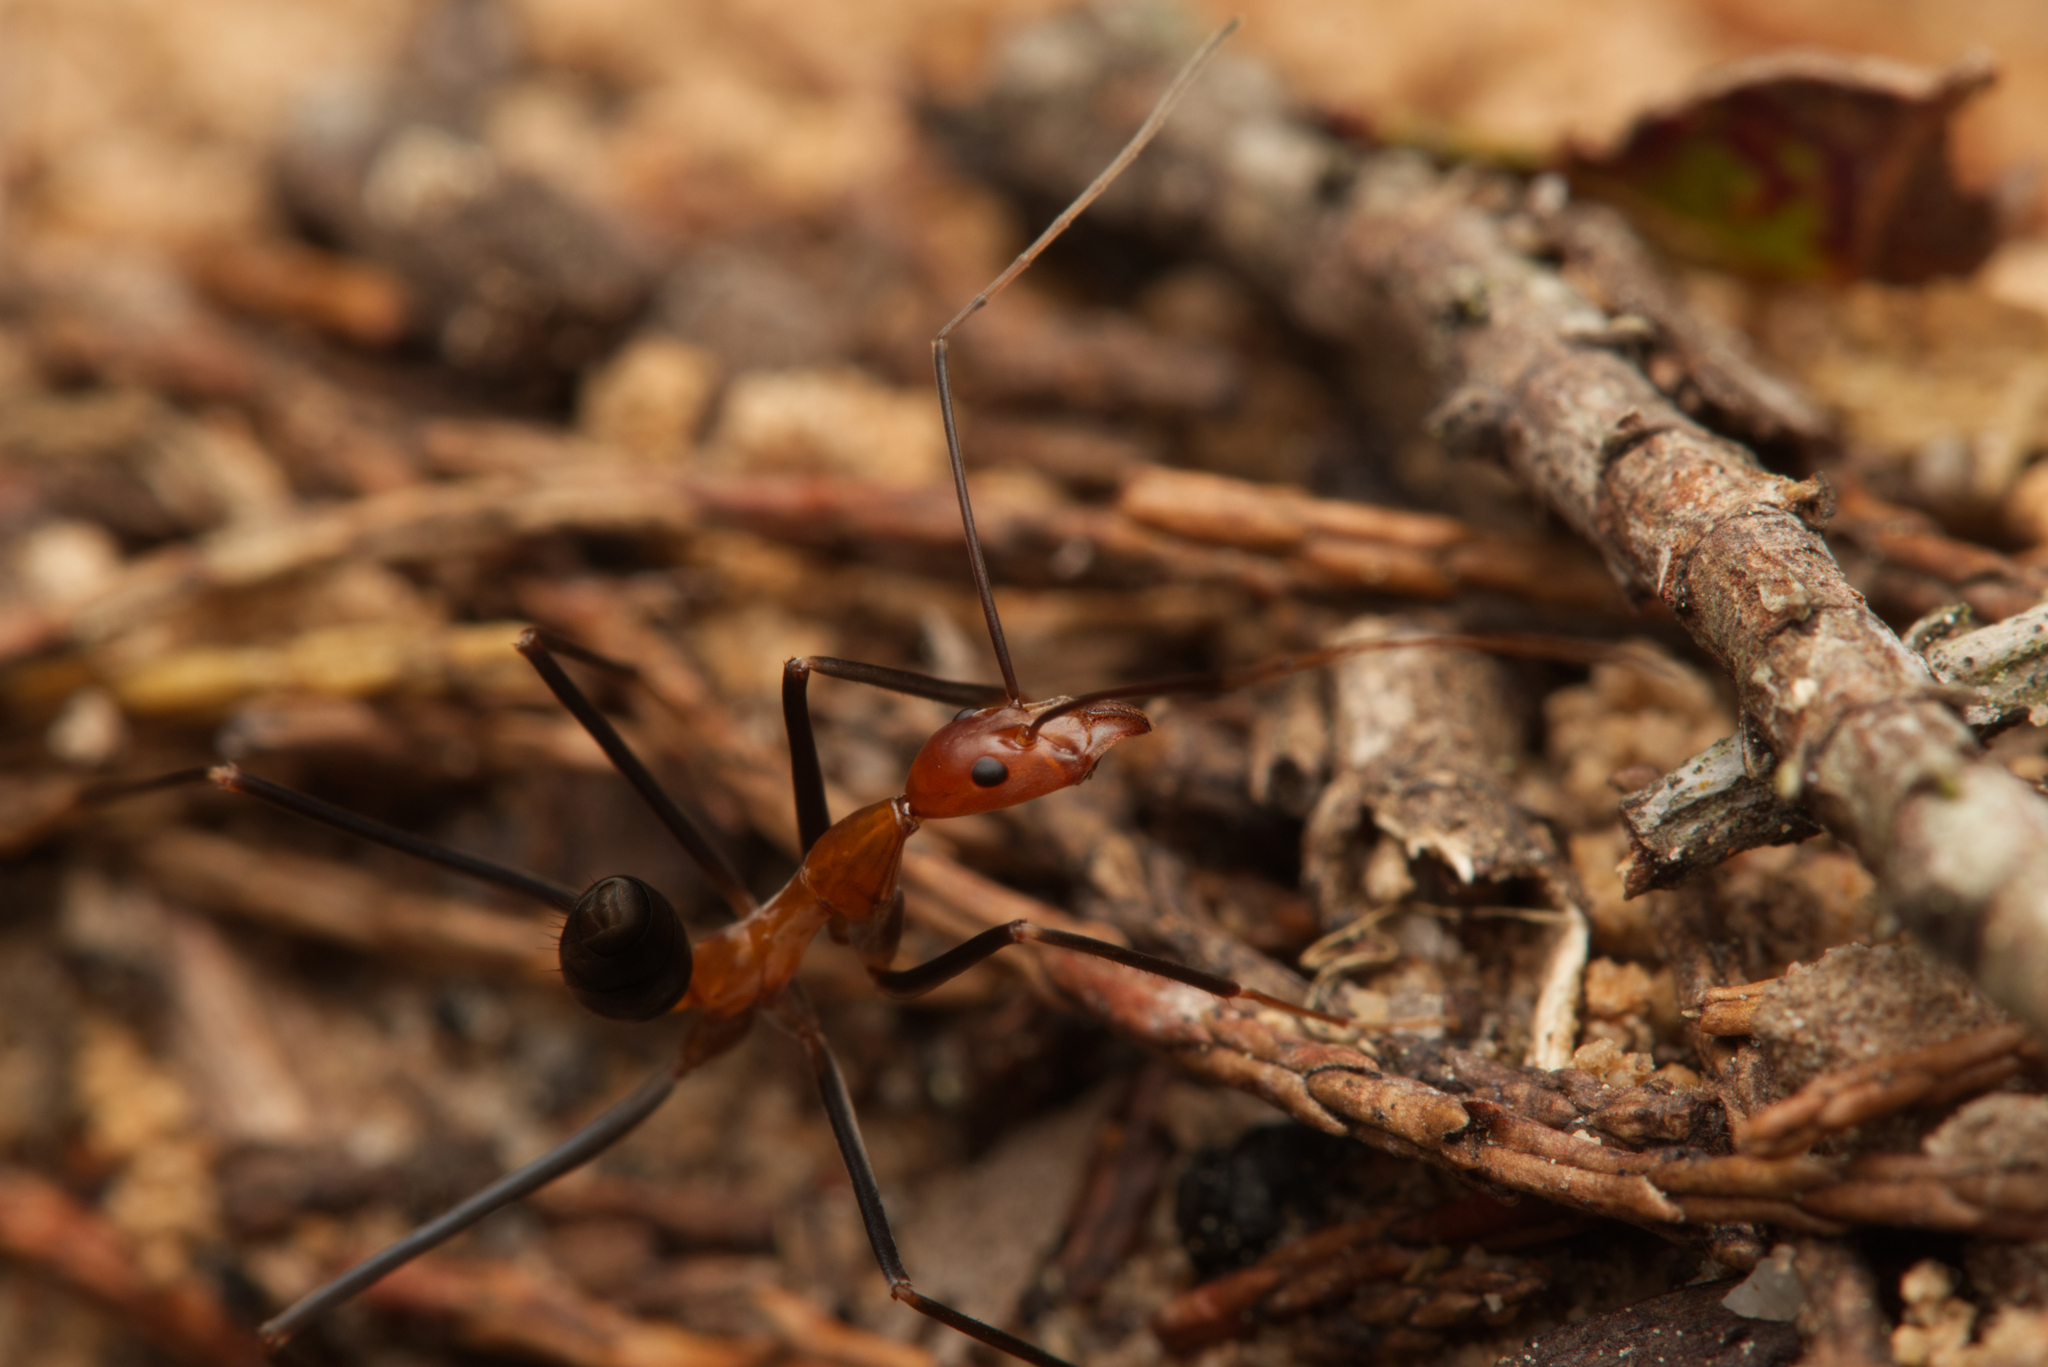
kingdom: Animalia
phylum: Arthropoda
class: Insecta
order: Hymenoptera
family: Formicidae
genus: Leptomyrmex
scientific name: Leptomyrmex varians
